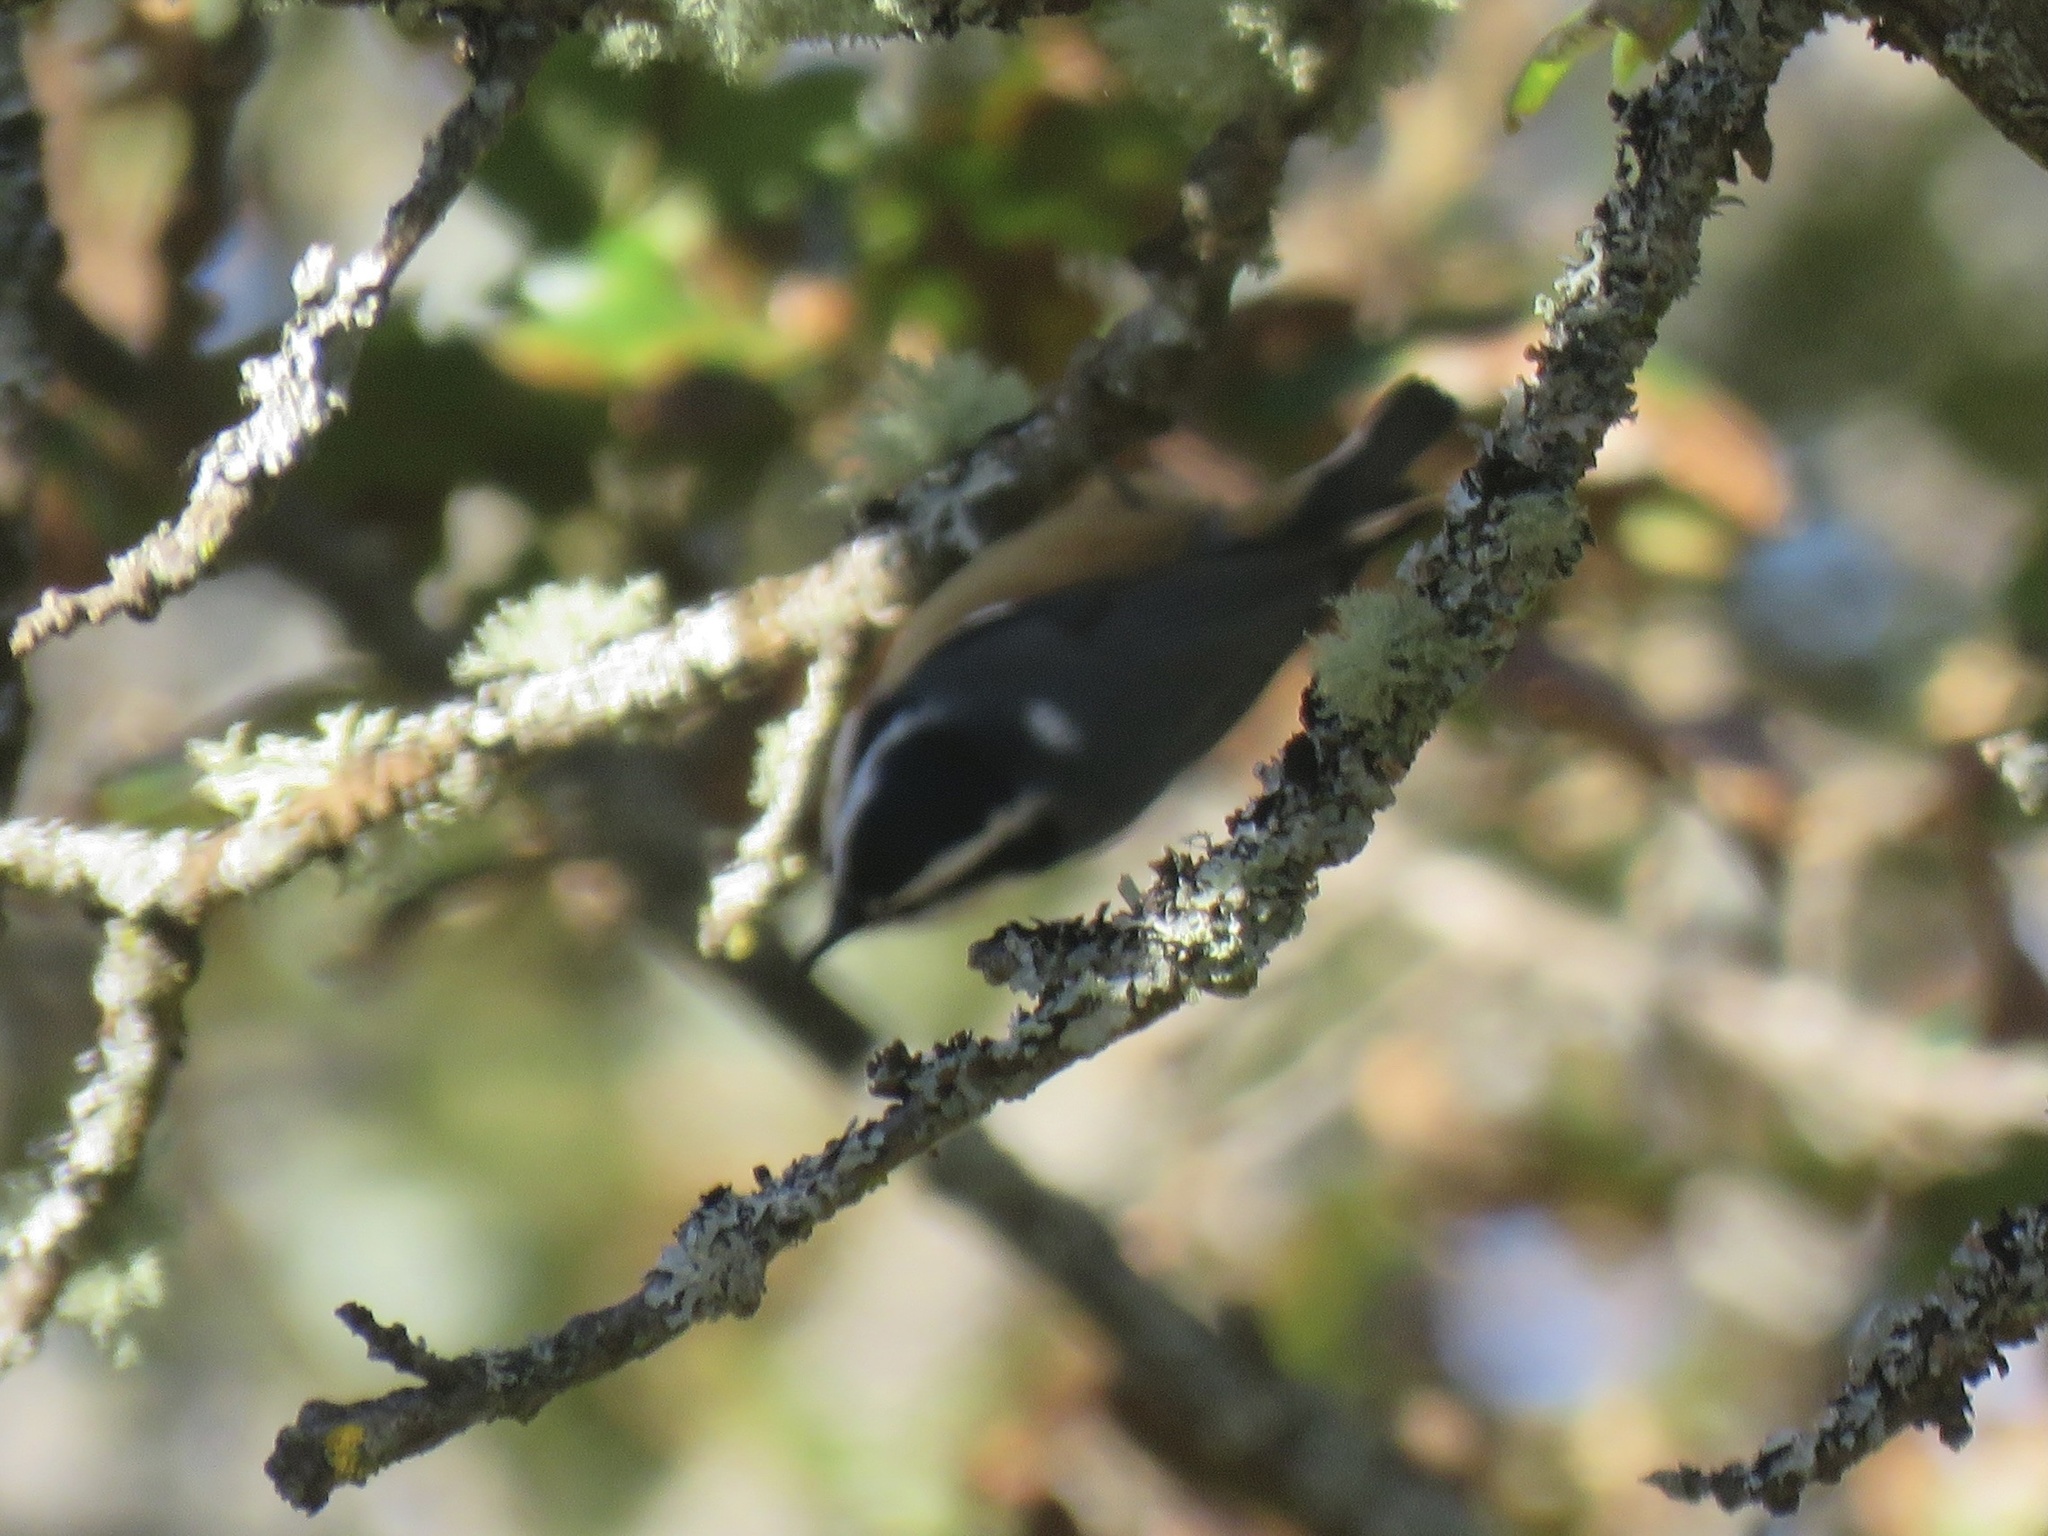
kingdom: Animalia
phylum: Chordata
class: Aves
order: Passeriformes
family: Sittidae
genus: Sitta
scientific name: Sitta canadensis
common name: Red-breasted nuthatch
